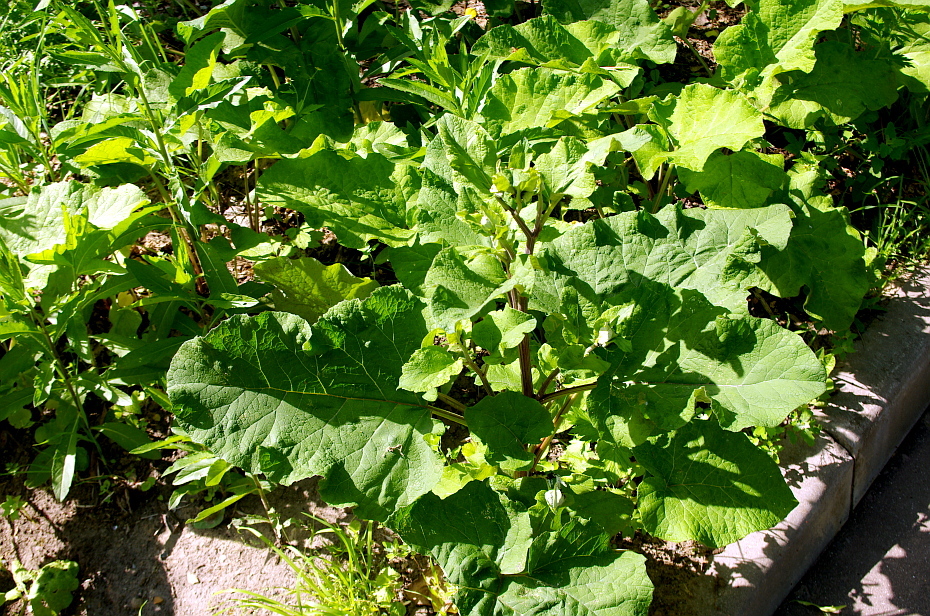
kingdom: Plantae
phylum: Tracheophyta
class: Magnoliopsida
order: Asterales
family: Asteraceae
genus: Arctium
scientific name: Arctium tomentosum
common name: Woolly burdock
